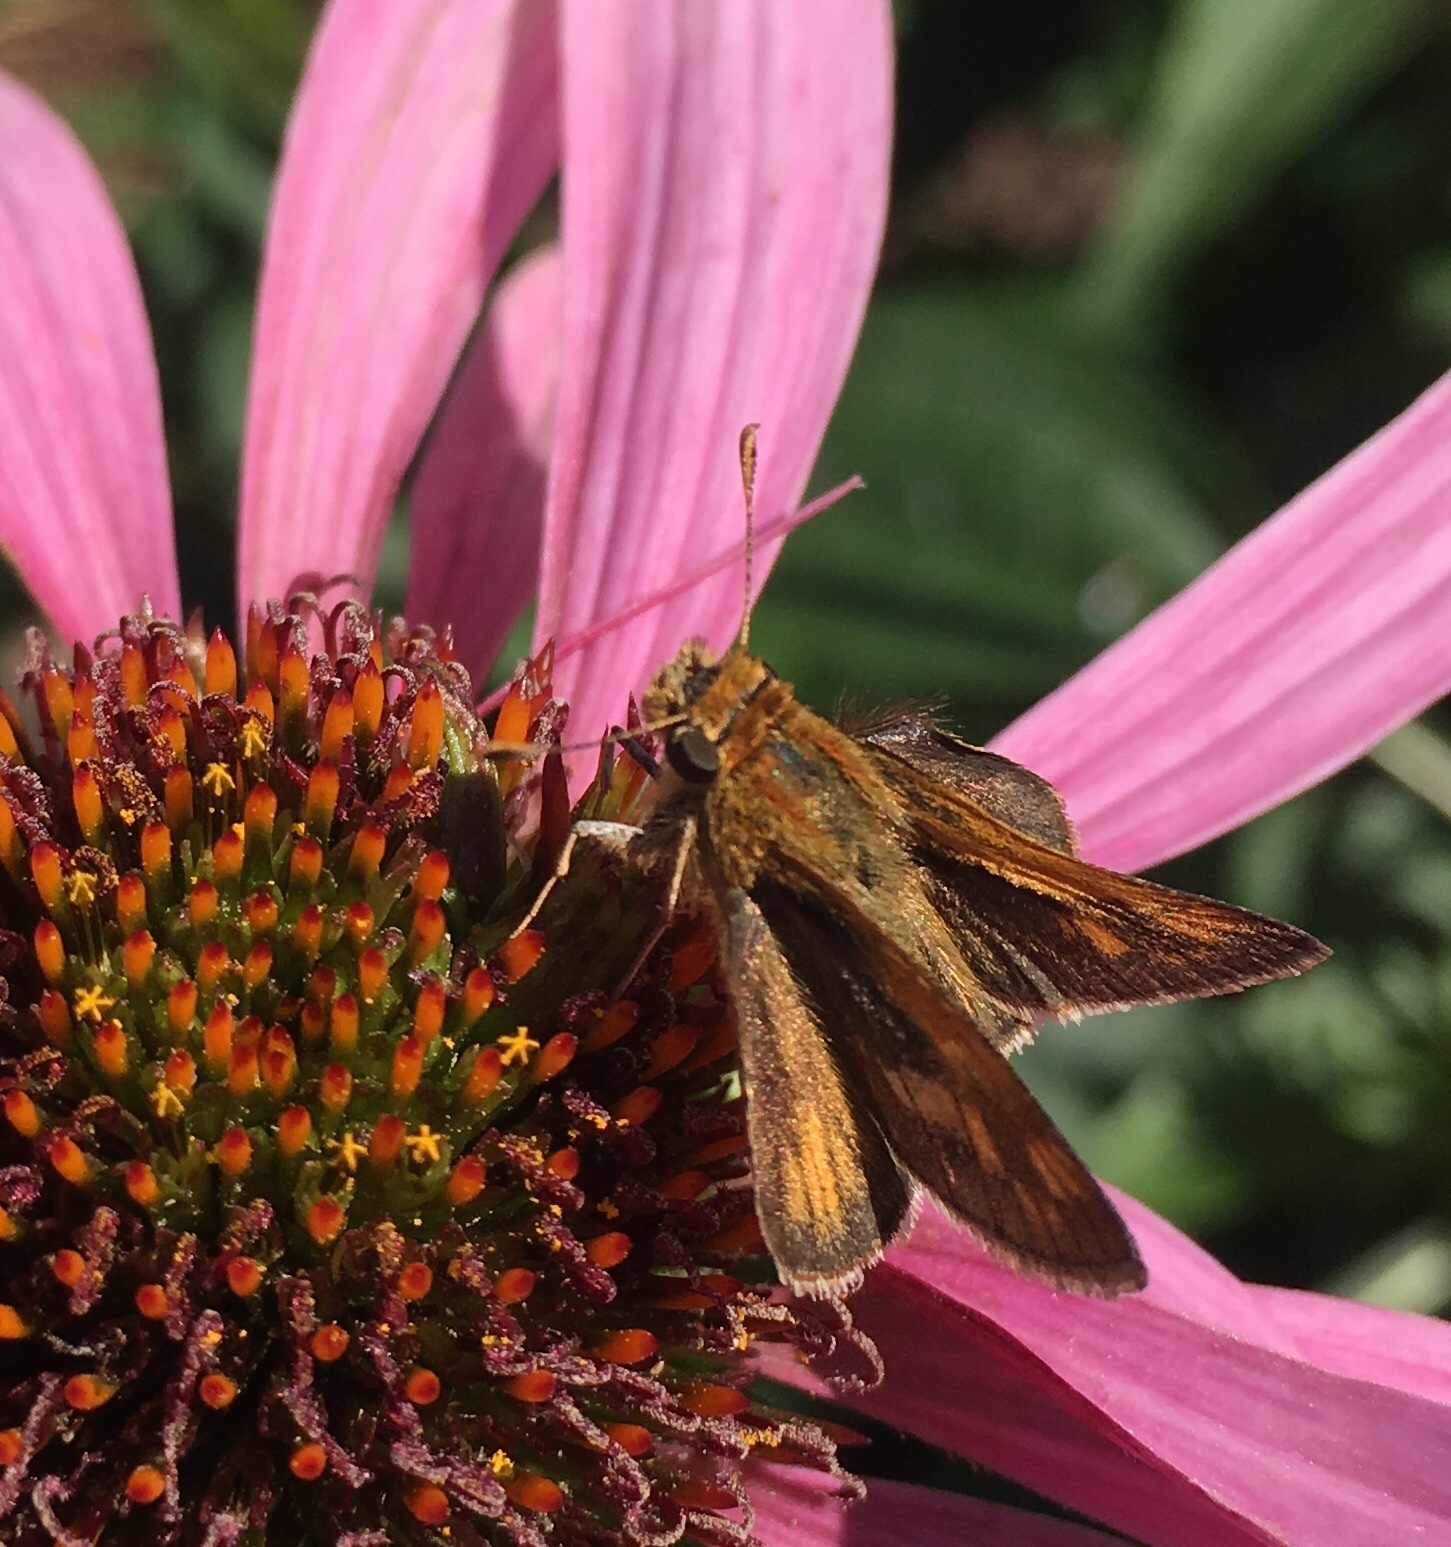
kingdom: Animalia
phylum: Arthropoda
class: Insecta
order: Lepidoptera
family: Hesperiidae
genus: Polites
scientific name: Polites coras
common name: Peck's skipper
